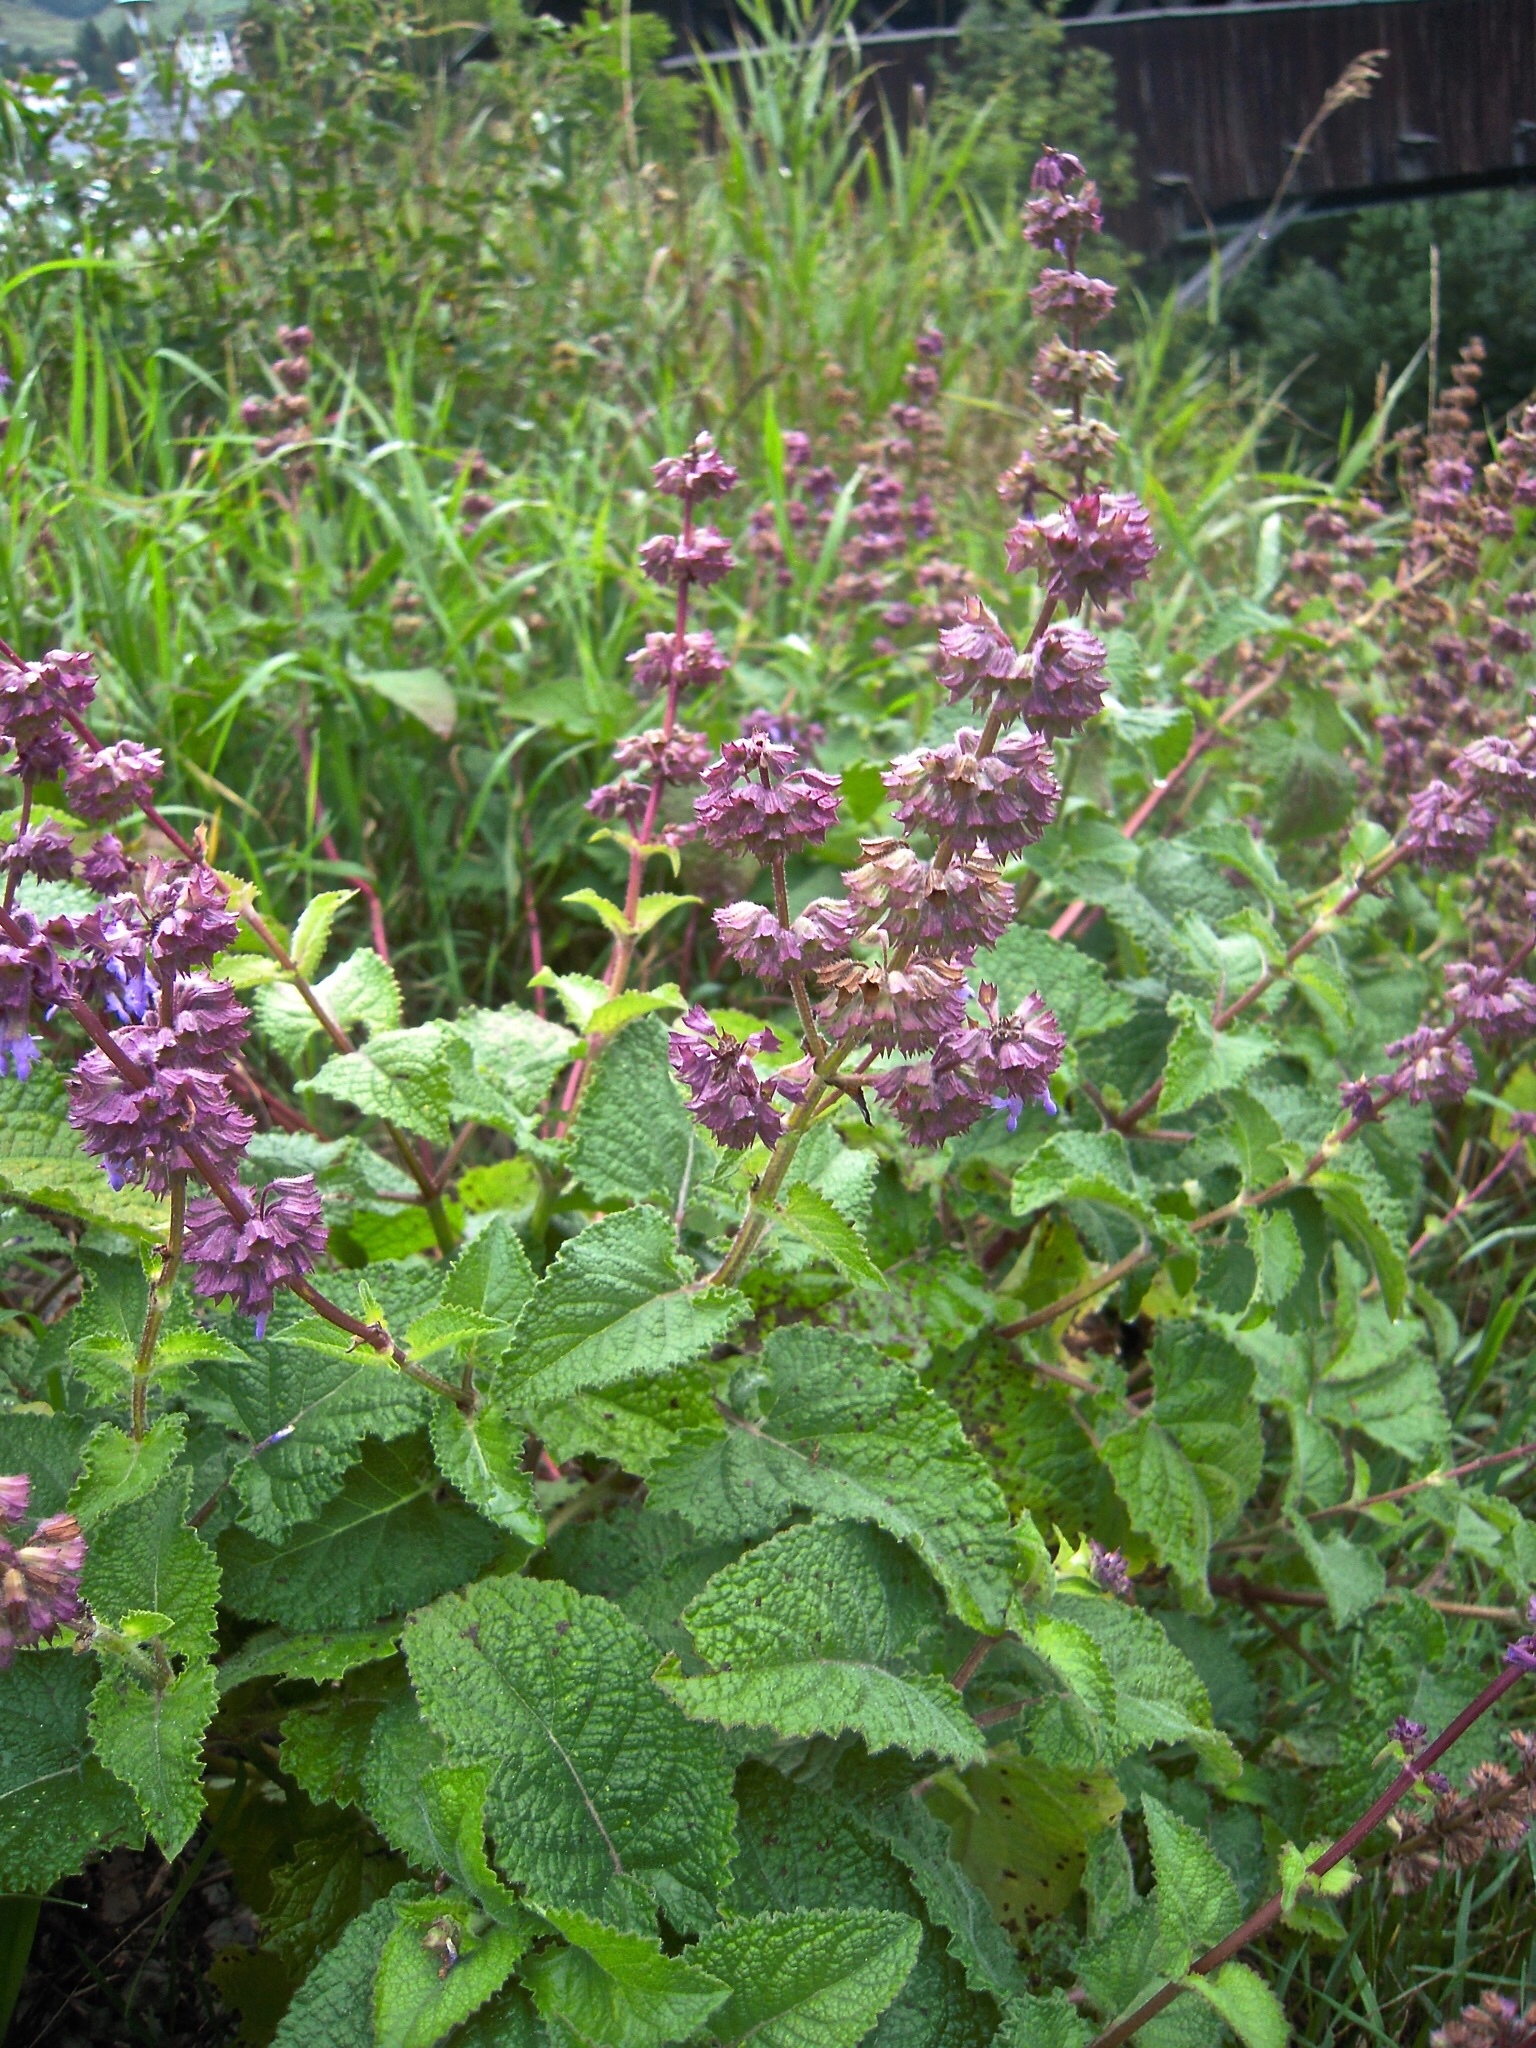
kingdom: Plantae
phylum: Tracheophyta
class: Magnoliopsida
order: Lamiales
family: Lamiaceae
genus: Salvia
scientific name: Salvia verticillata
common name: Whorled clary
